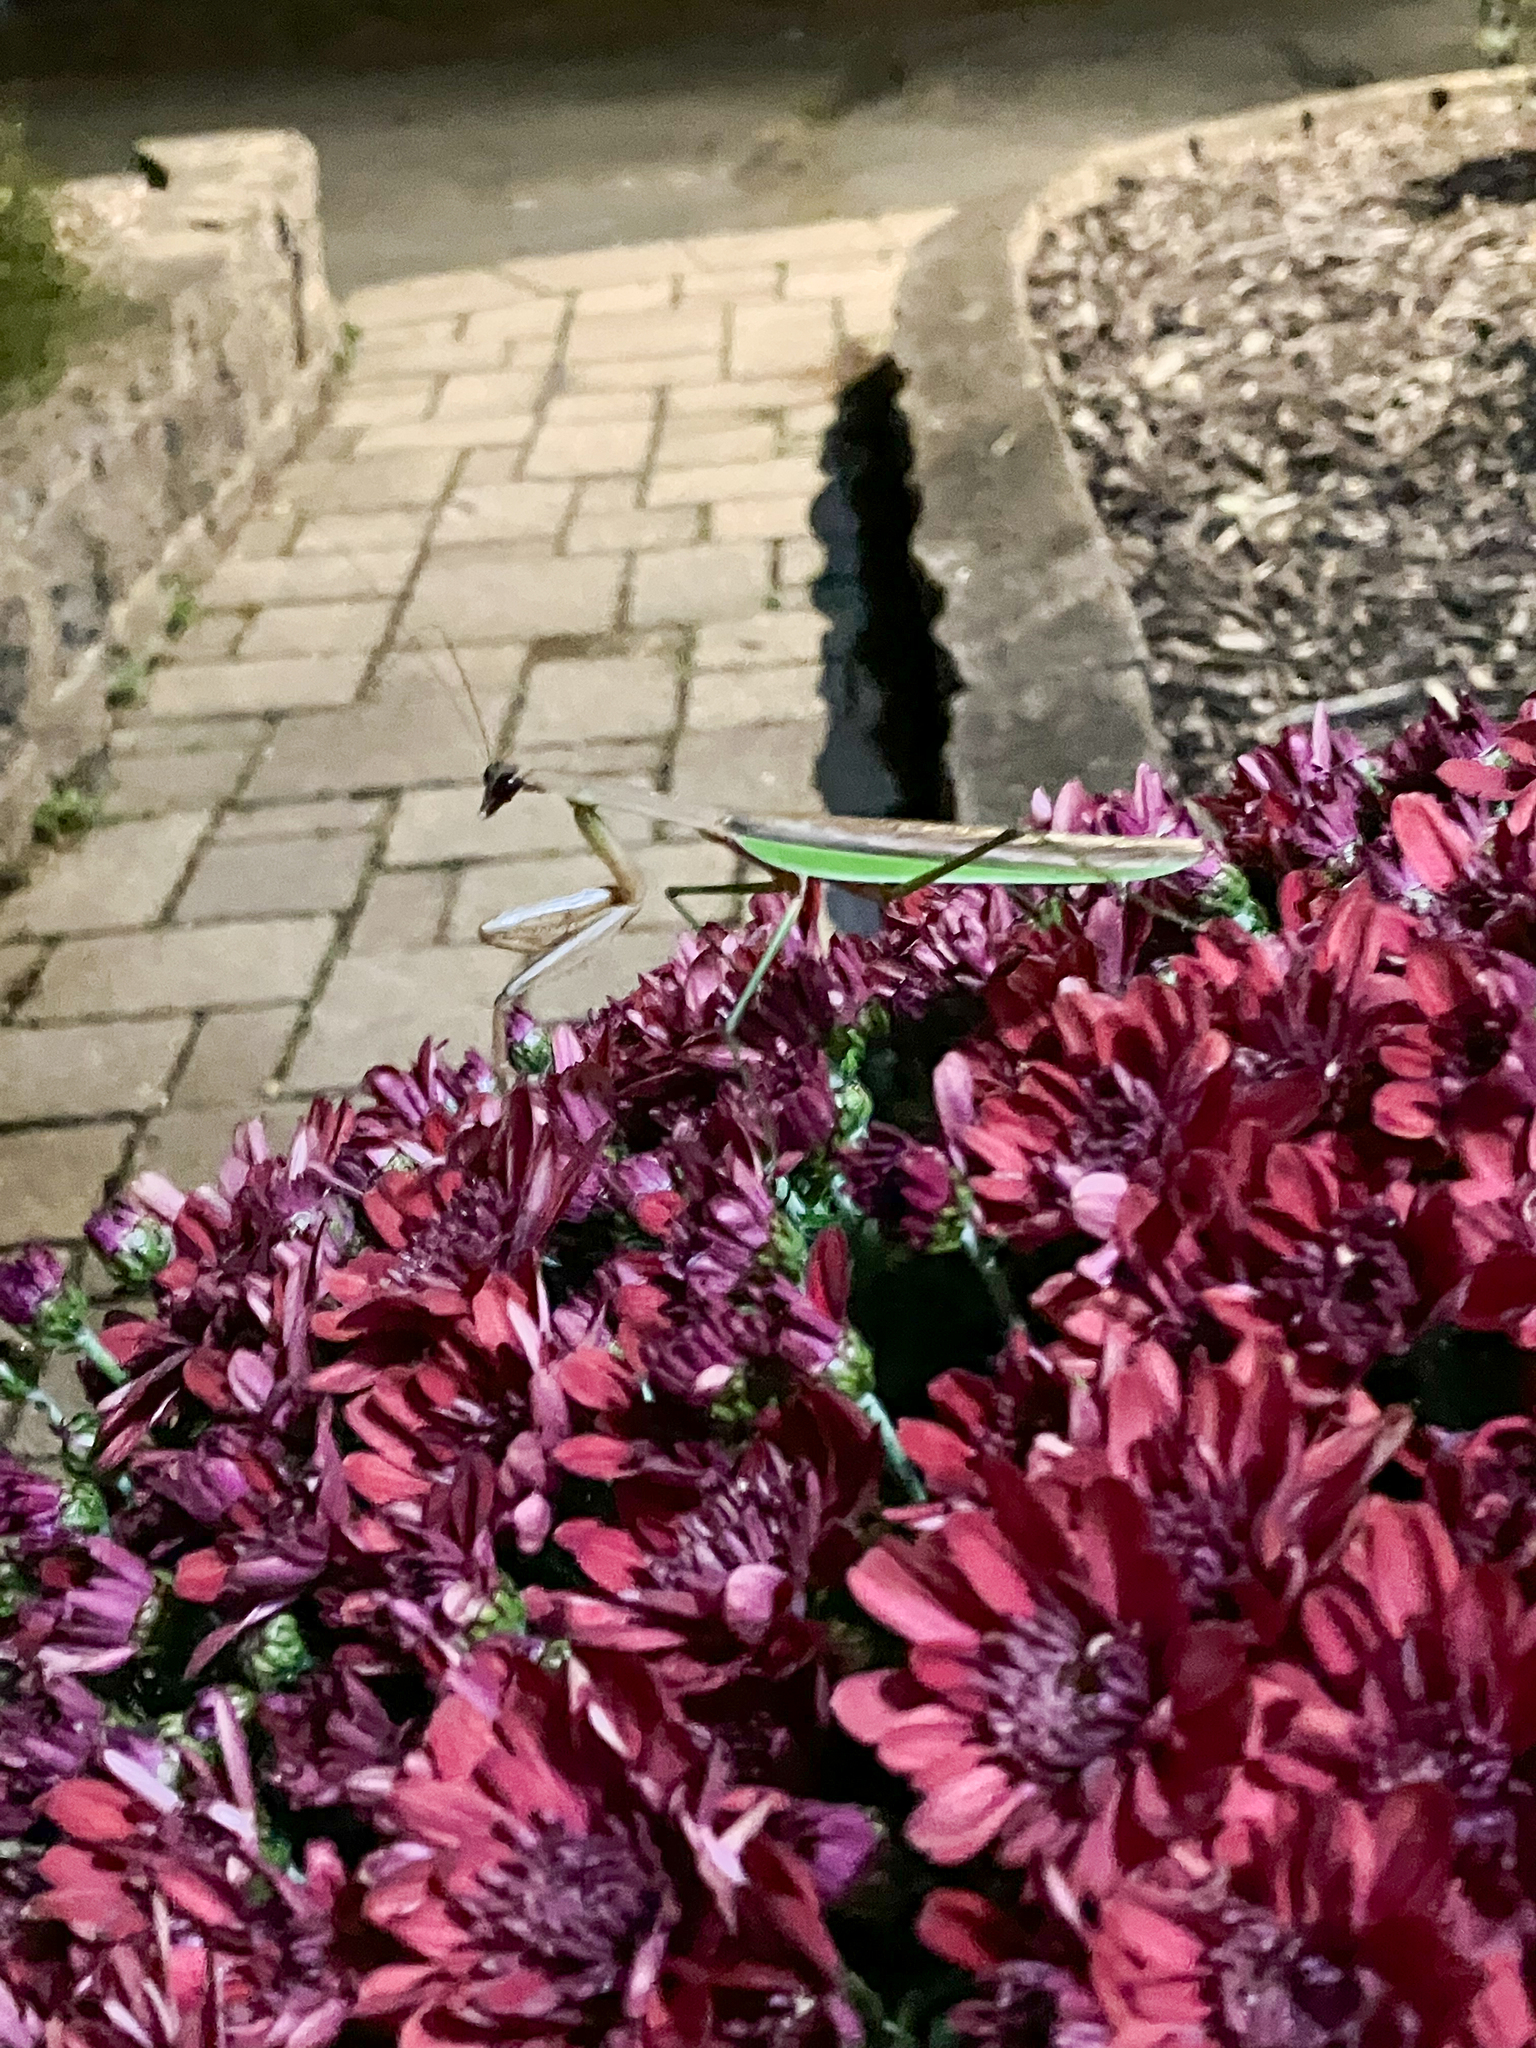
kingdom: Animalia
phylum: Arthropoda
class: Insecta
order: Mantodea
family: Mantidae
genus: Tenodera
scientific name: Tenodera sinensis
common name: Chinese mantis
